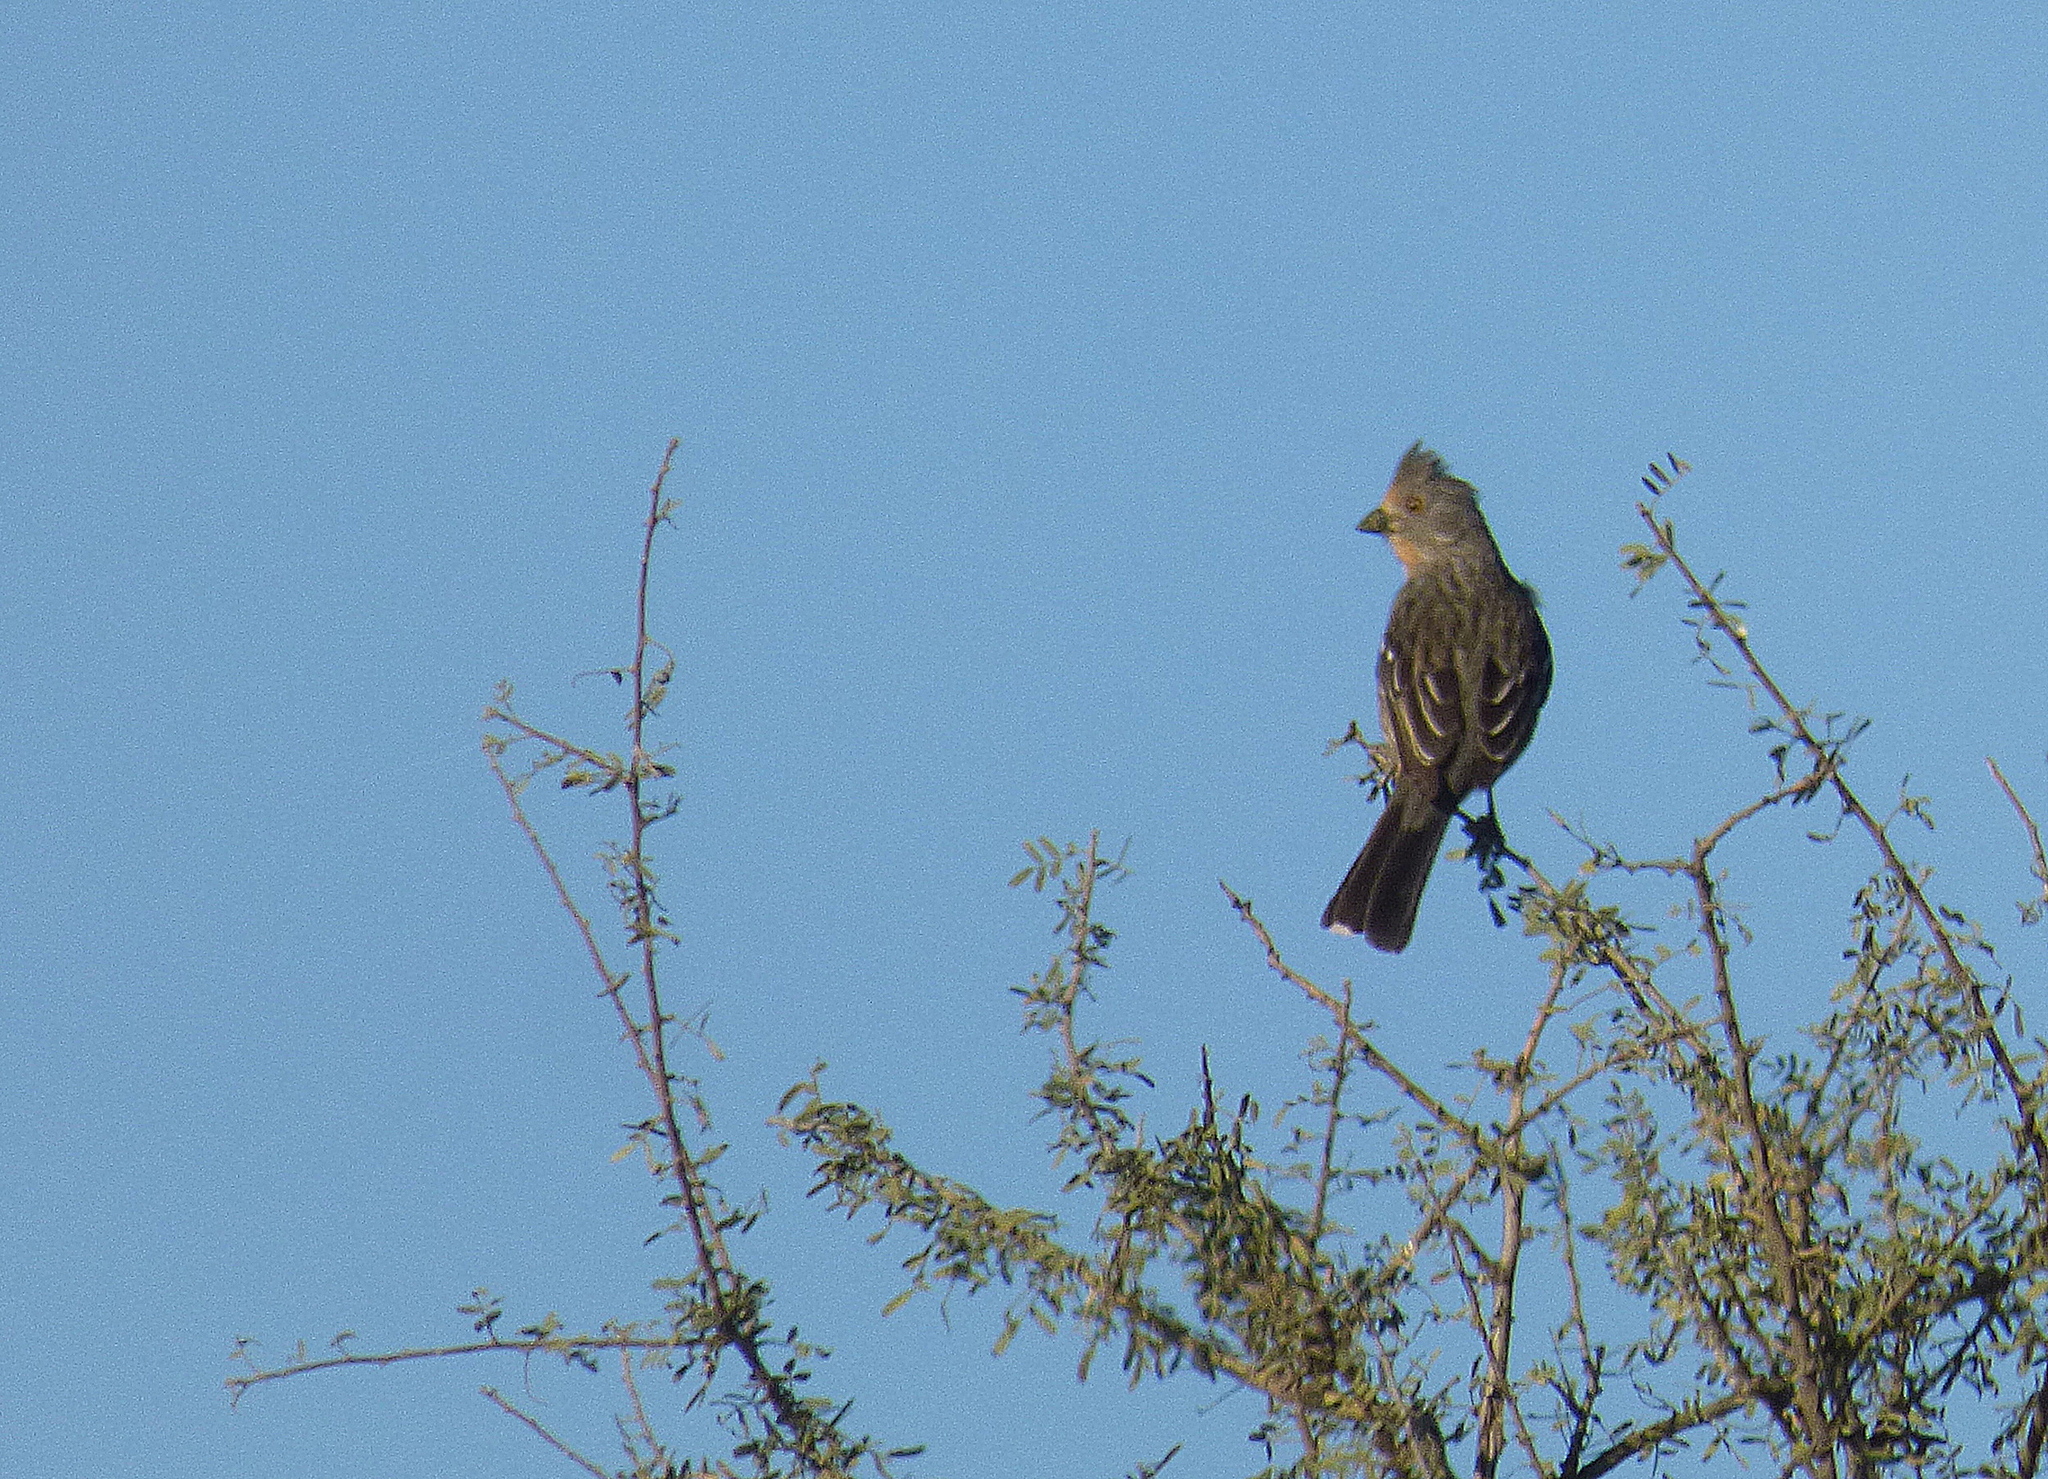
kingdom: Animalia
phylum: Chordata
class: Aves
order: Passeriformes
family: Cotingidae
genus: Phytotoma
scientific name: Phytotoma rutila
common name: White-tipped plantcutter
